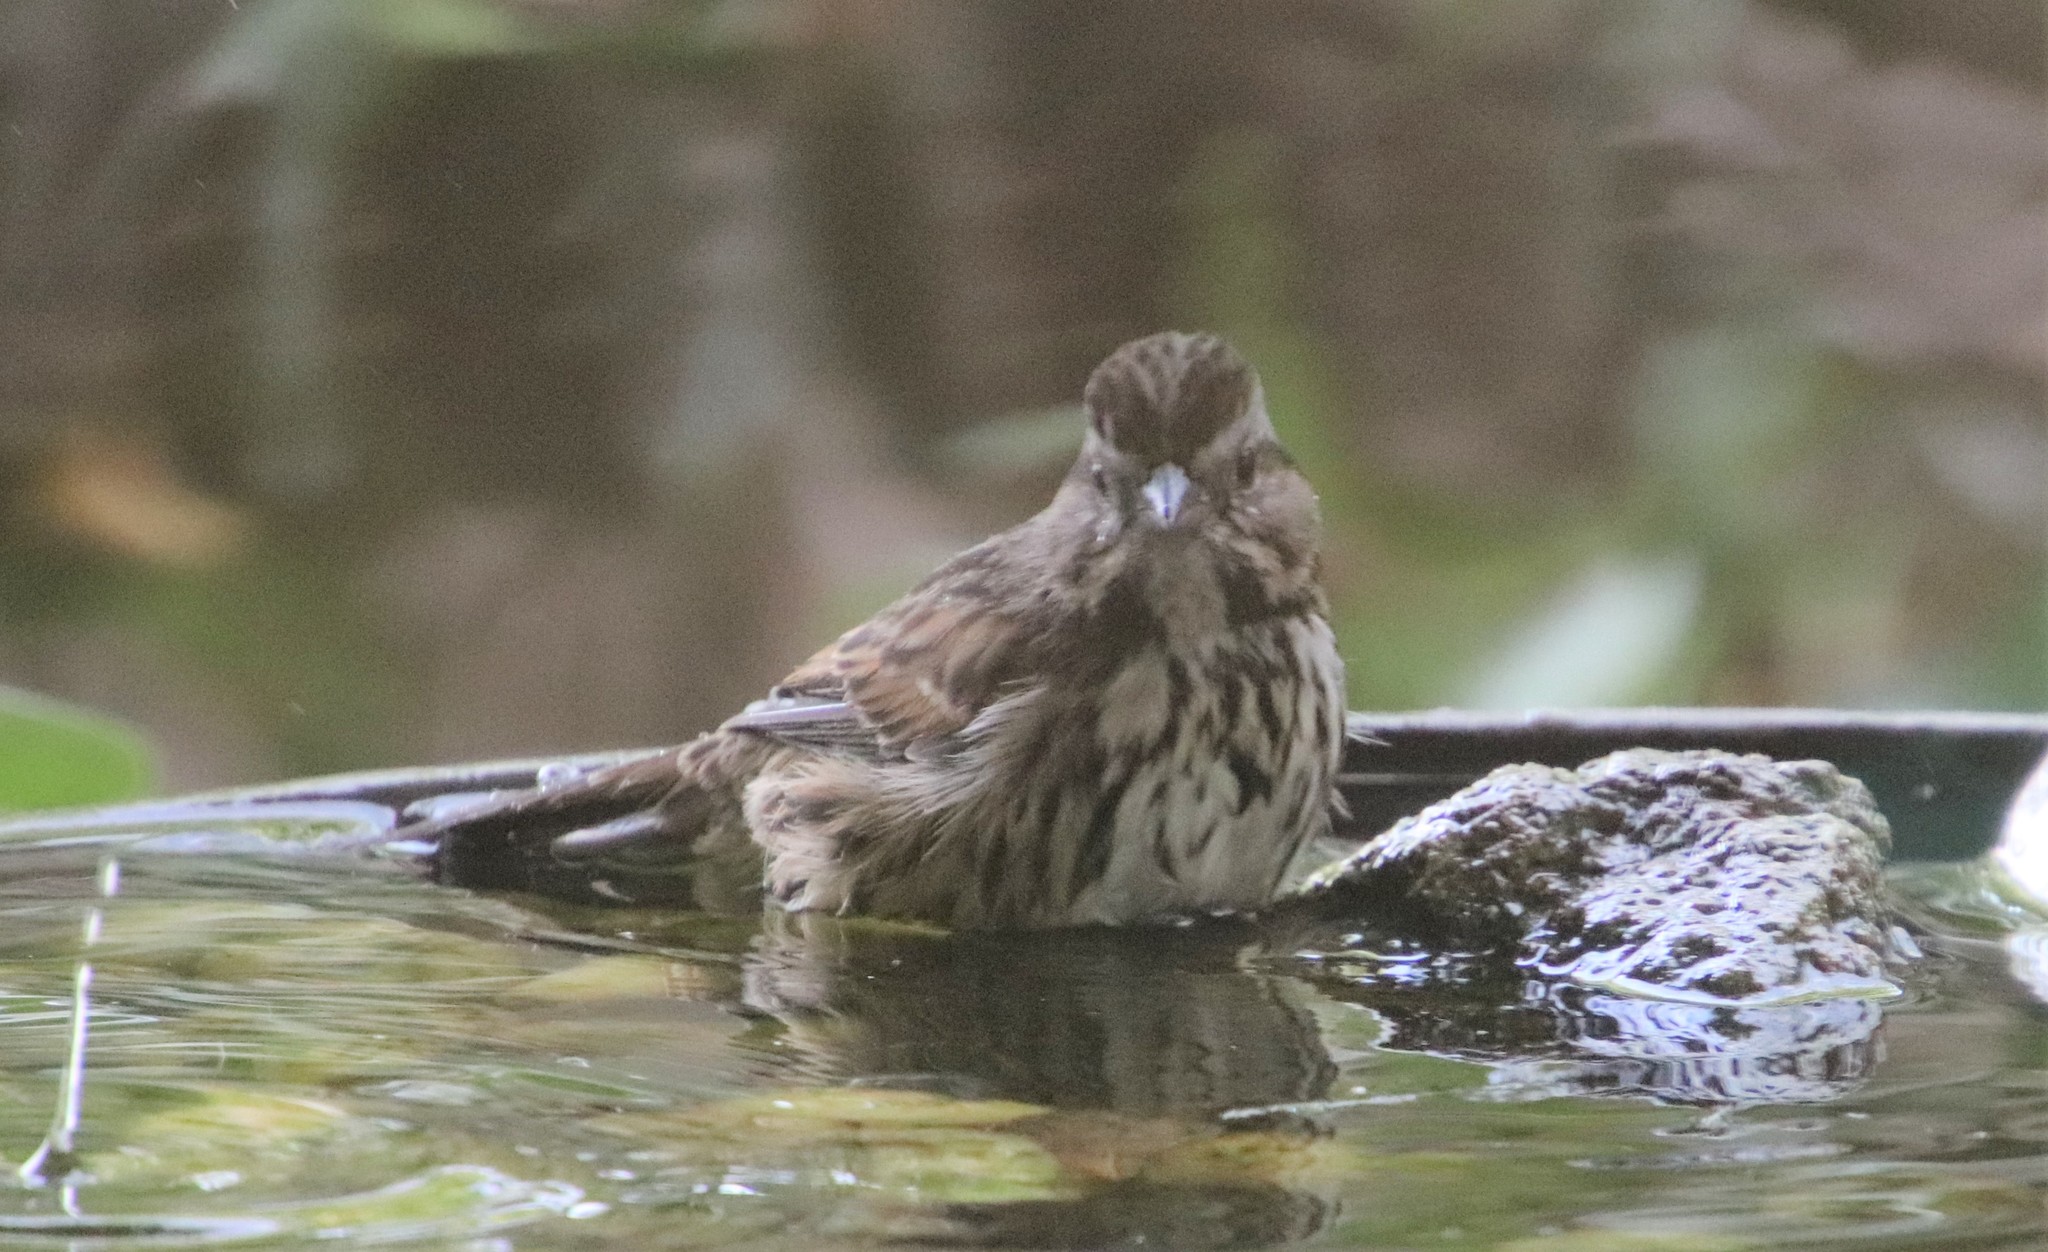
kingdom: Animalia
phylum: Chordata
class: Aves
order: Passeriformes
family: Passerellidae
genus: Melospiza
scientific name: Melospiza melodia
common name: Song sparrow
